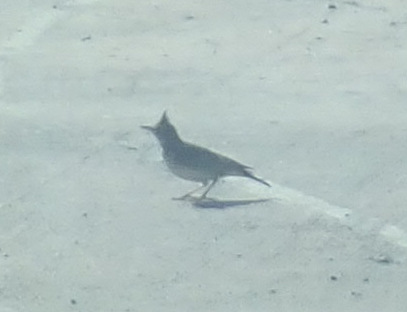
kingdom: Animalia
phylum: Chordata
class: Aves
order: Passeriformes
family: Alaudidae
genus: Galerida
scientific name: Galerida cristata
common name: Crested lark
